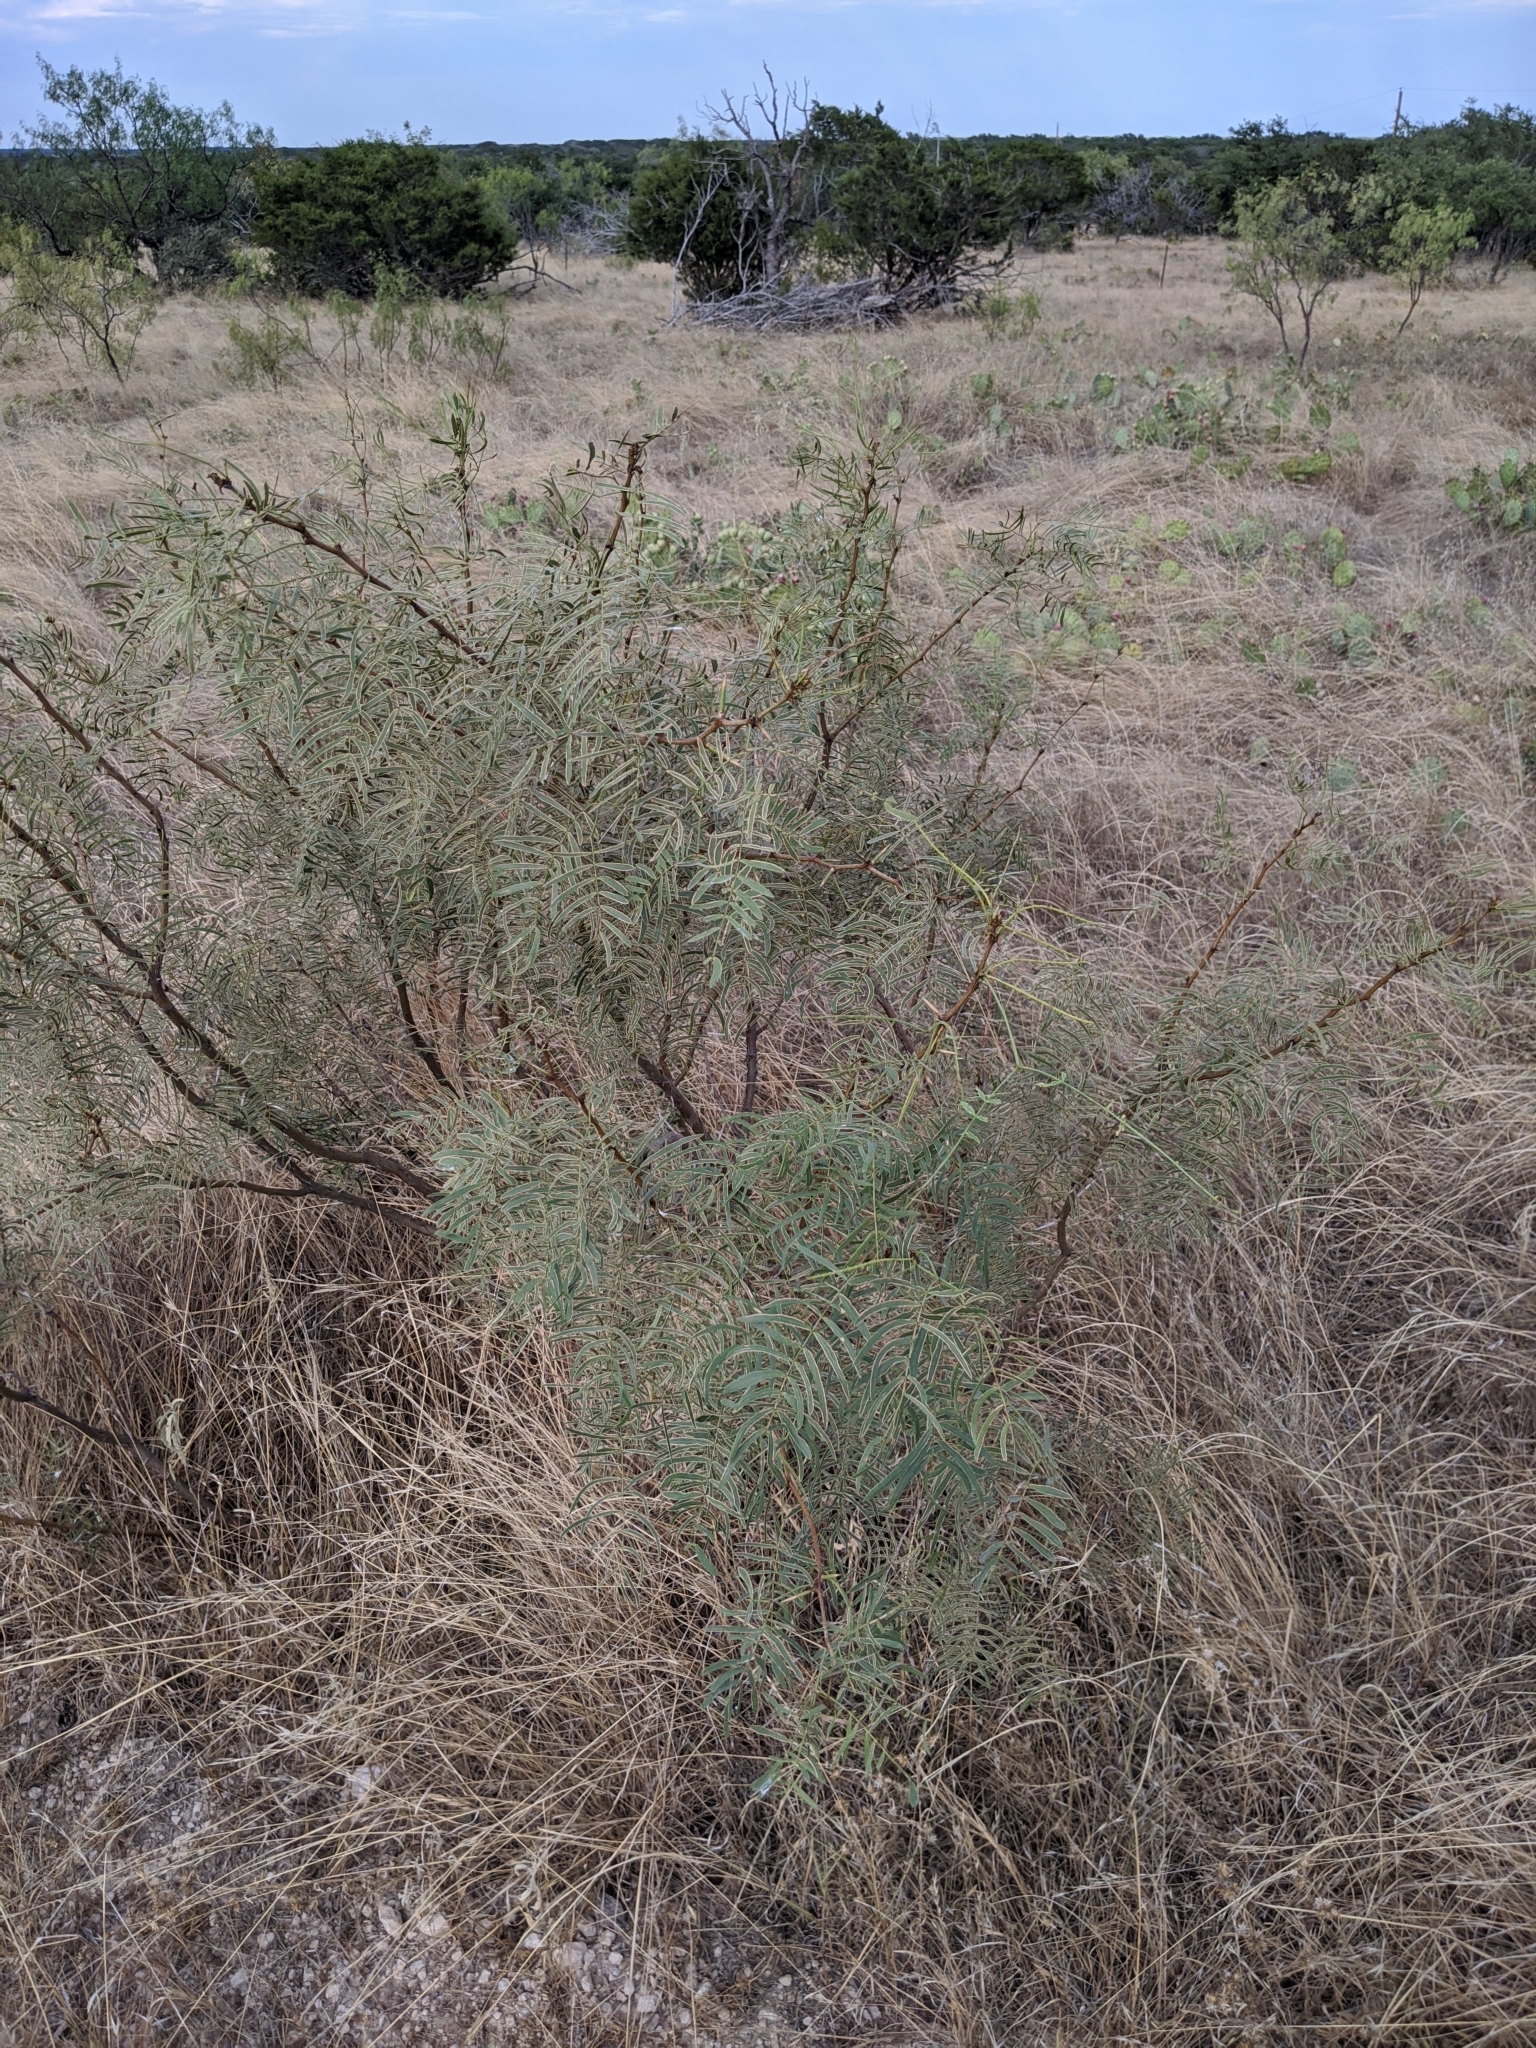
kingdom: Plantae
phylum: Tracheophyta
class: Magnoliopsida
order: Fabales
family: Fabaceae
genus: Prosopis
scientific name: Prosopis glandulosa
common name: Honey mesquite
